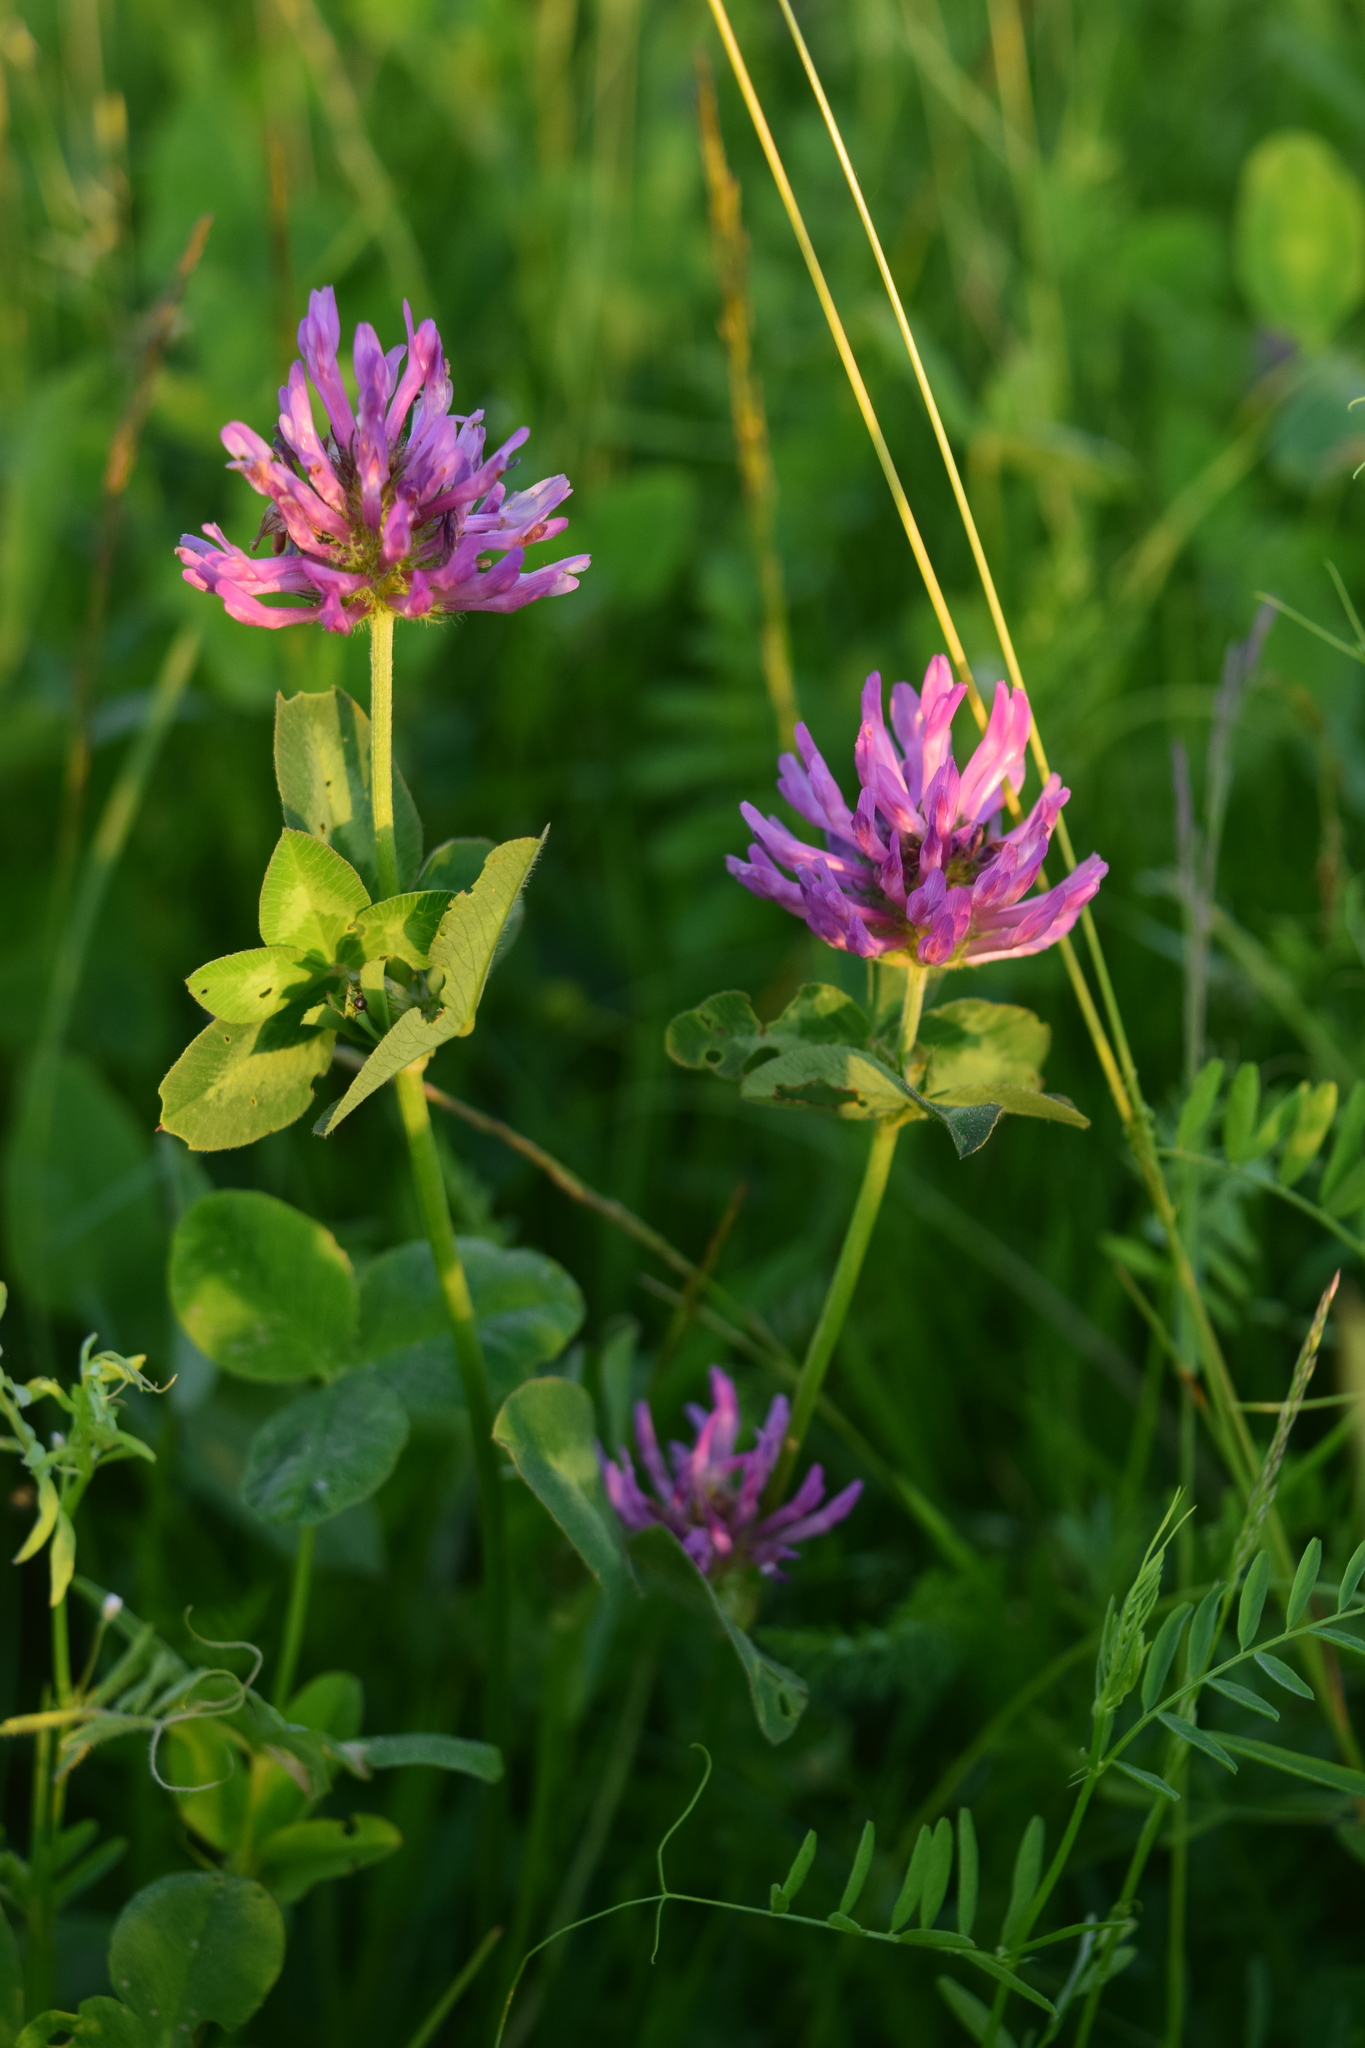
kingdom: Plantae
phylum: Tracheophyta
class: Magnoliopsida
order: Fabales
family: Fabaceae
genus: Trifolium
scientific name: Trifolium pratense
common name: Red clover
